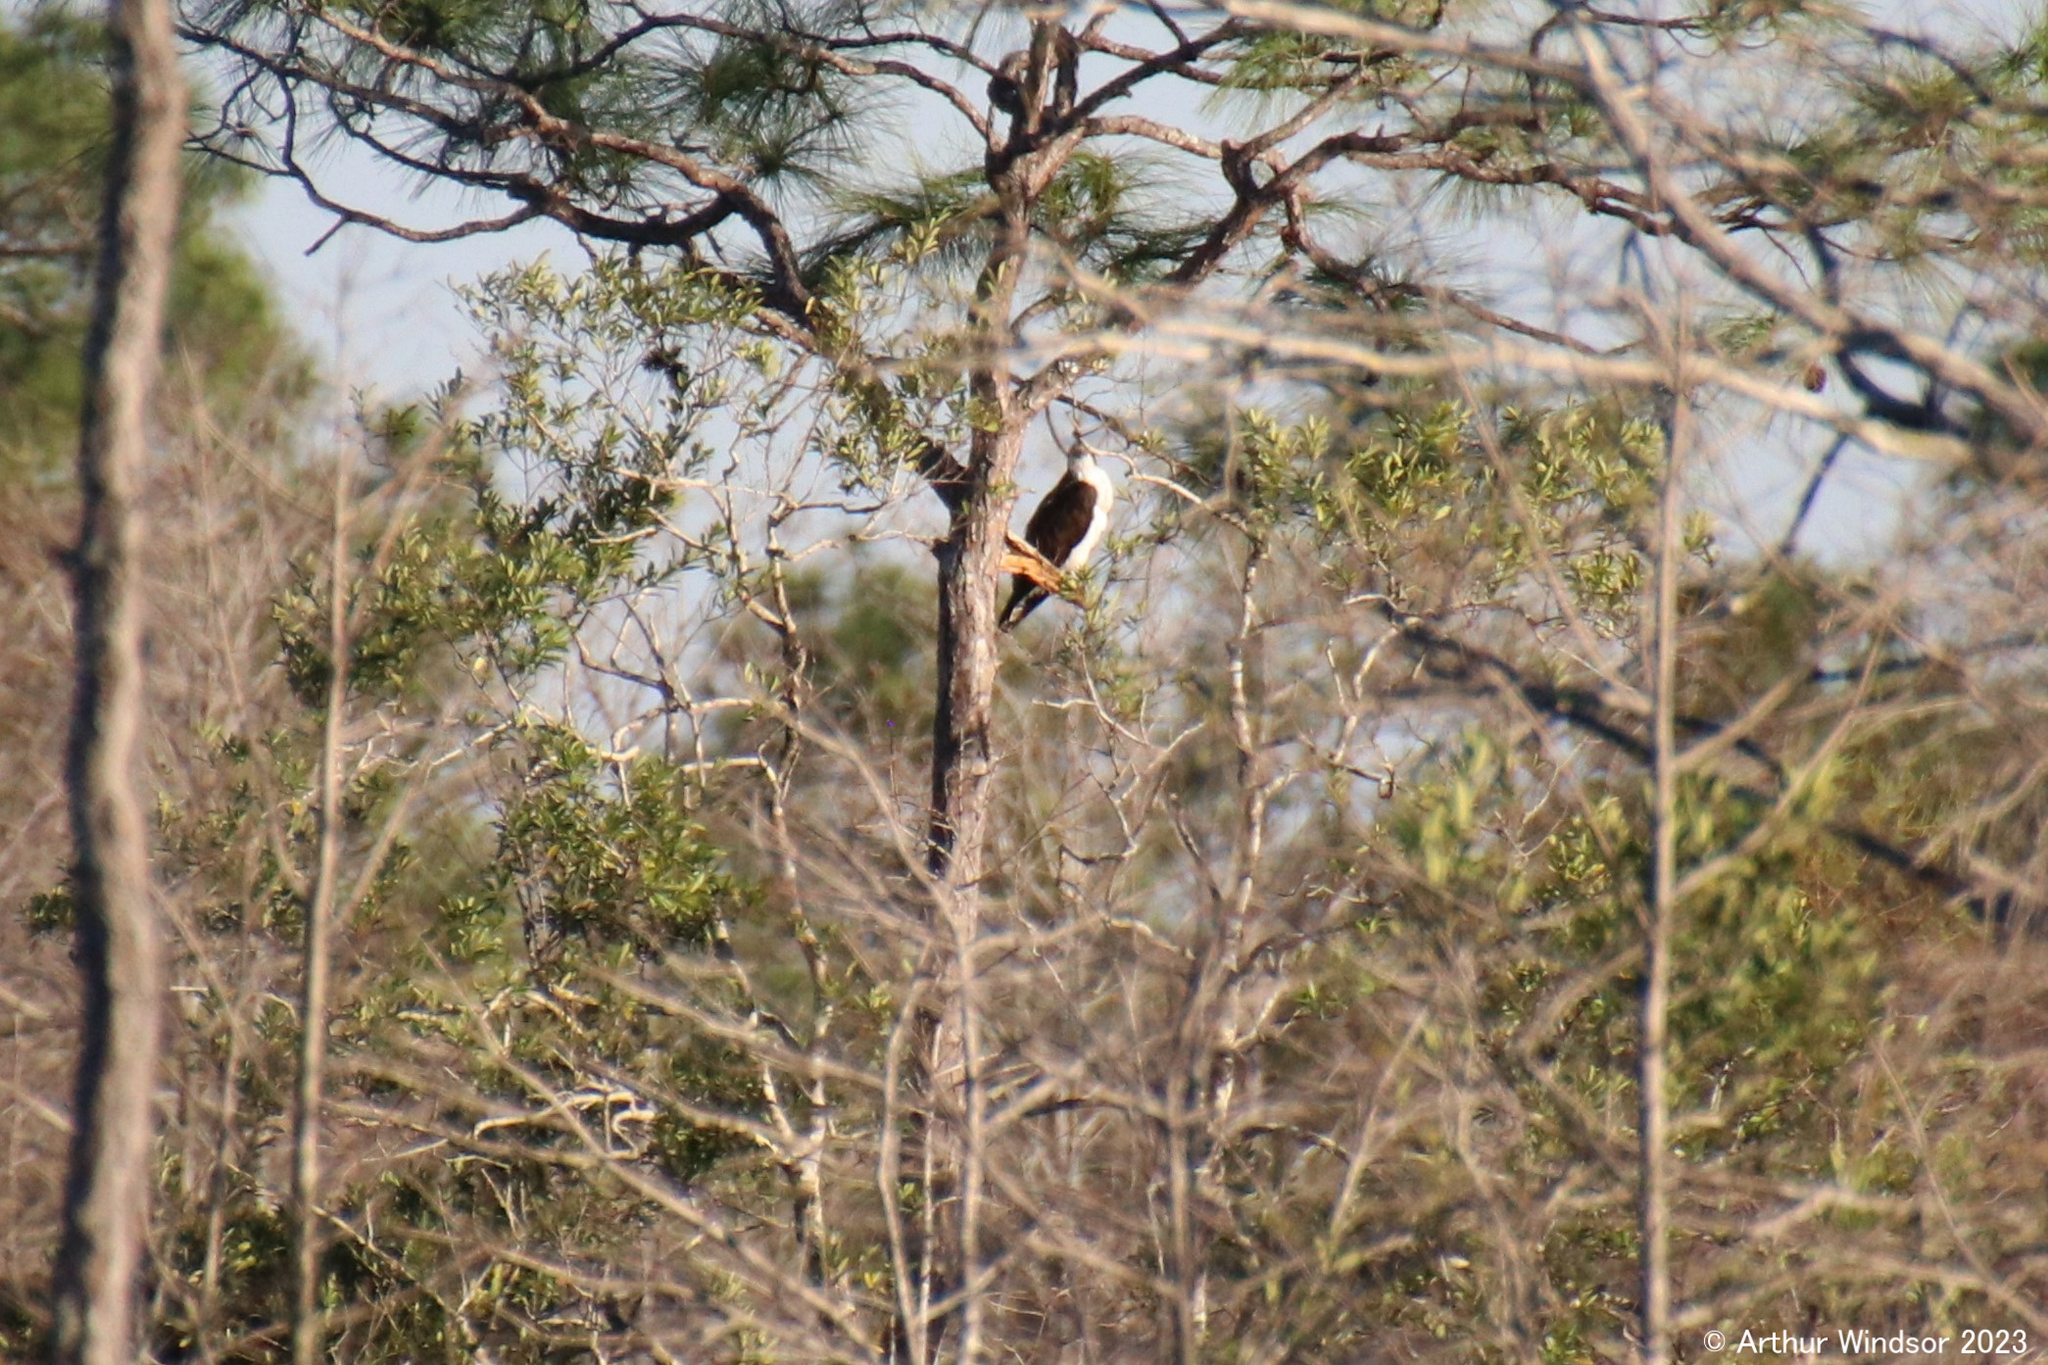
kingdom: Animalia
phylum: Chordata
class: Aves
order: Accipitriformes
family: Pandionidae
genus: Pandion
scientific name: Pandion haliaetus
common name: Osprey
